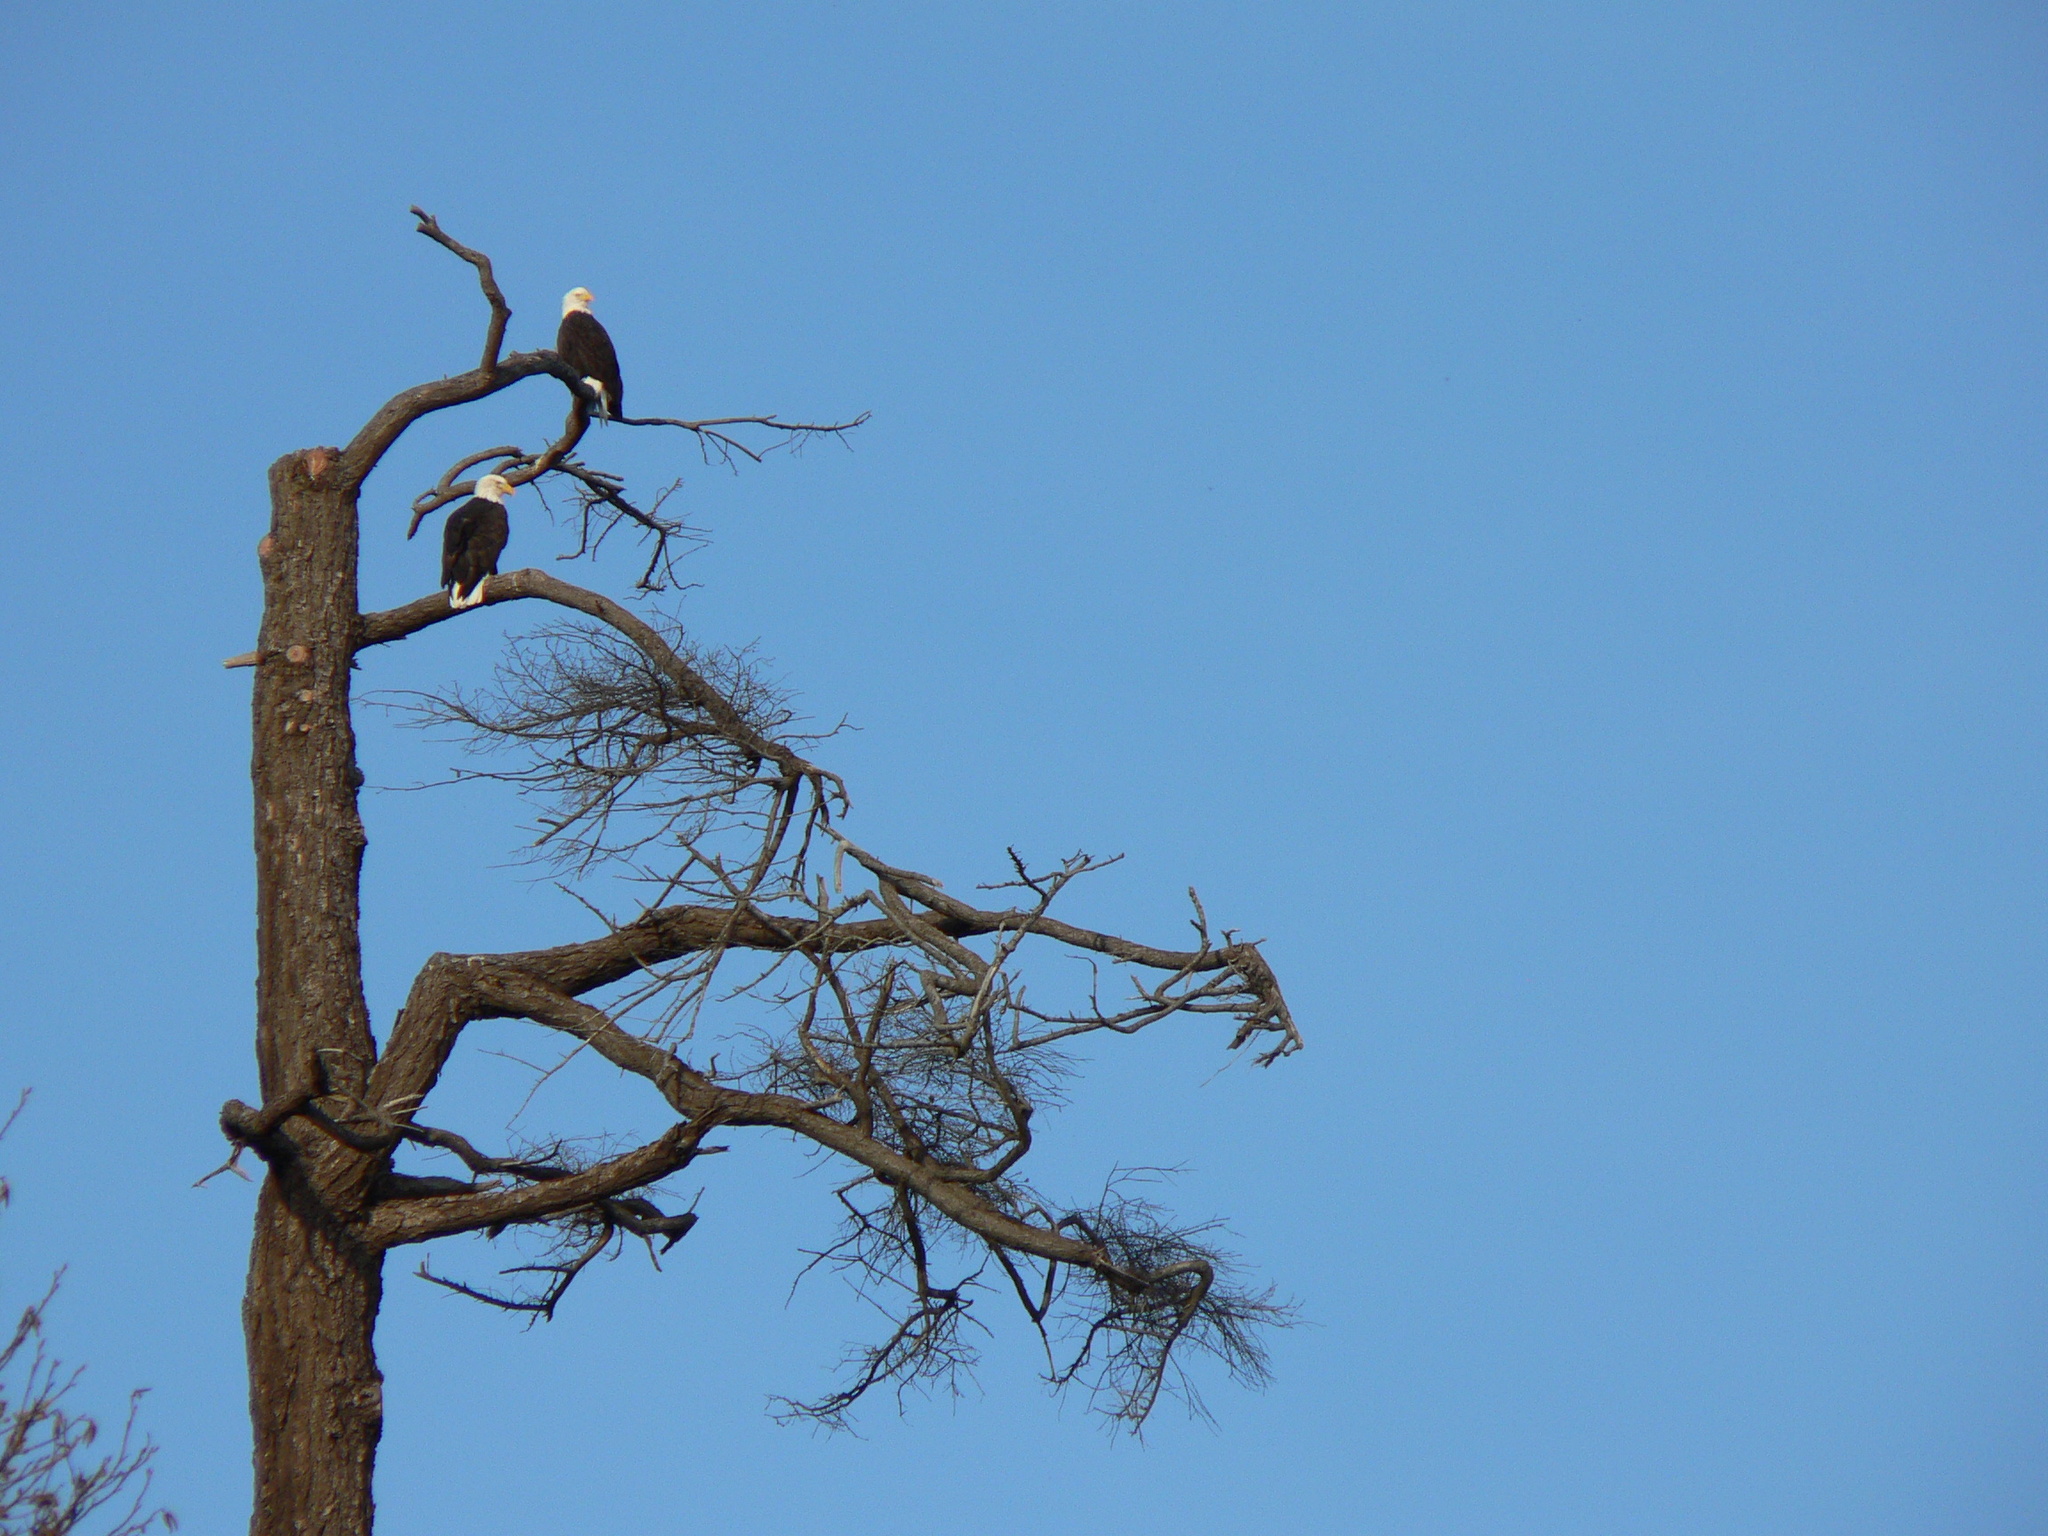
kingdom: Animalia
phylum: Chordata
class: Aves
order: Accipitriformes
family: Accipitridae
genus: Haliaeetus
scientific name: Haliaeetus leucocephalus
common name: Bald eagle
